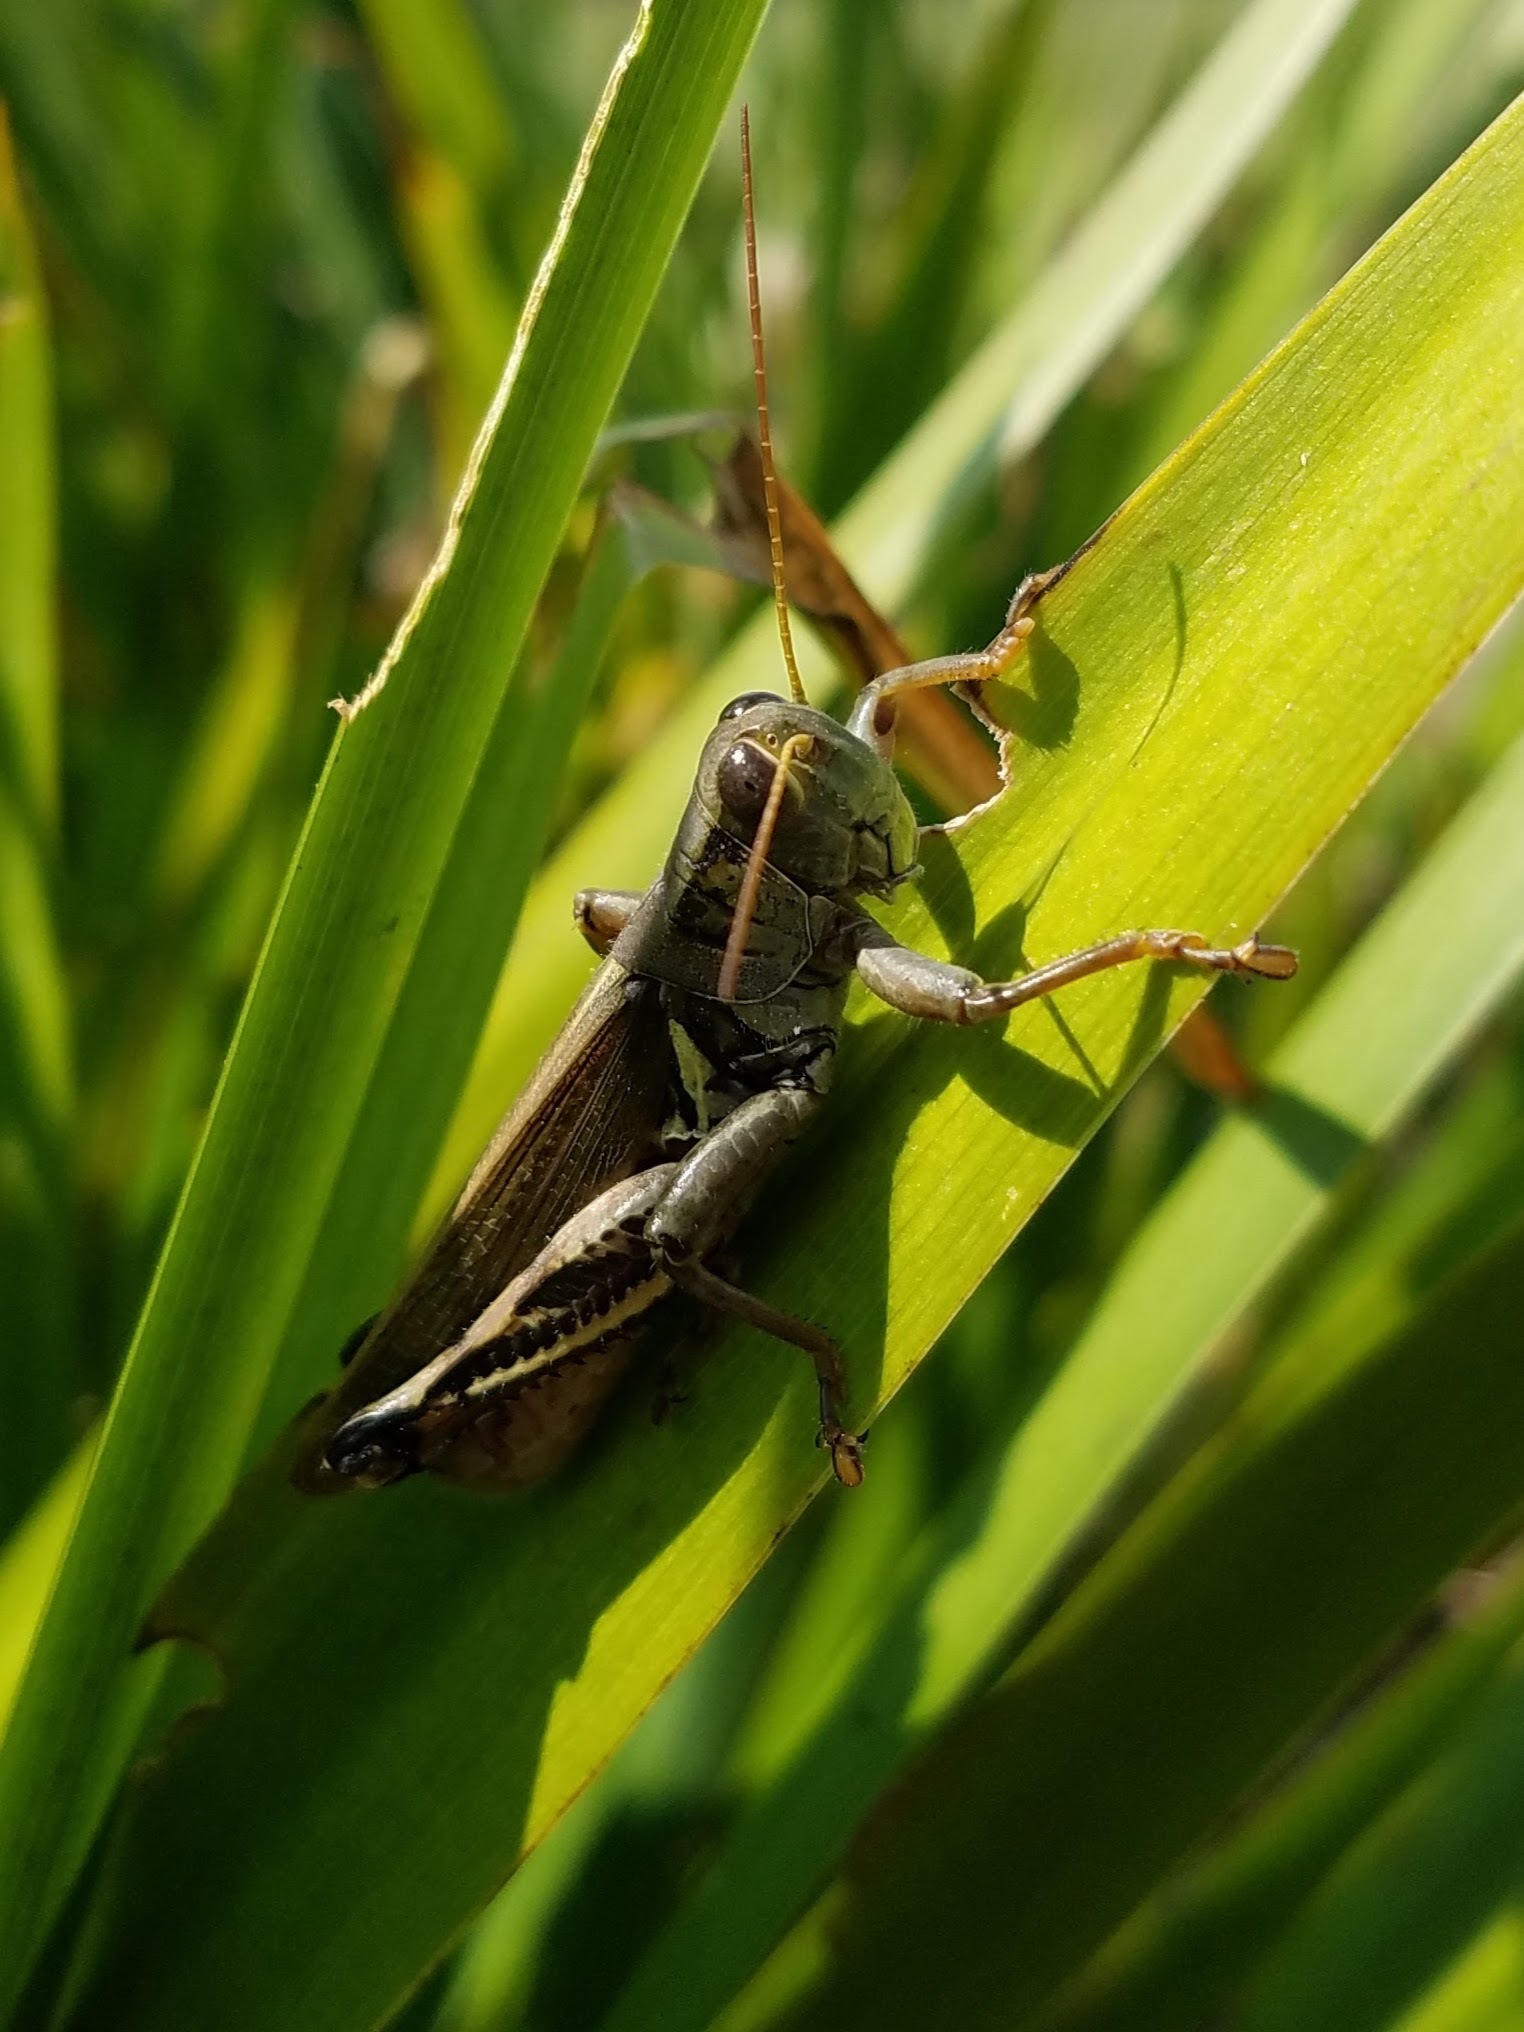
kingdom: Animalia
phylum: Arthropoda
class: Insecta
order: Orthoptera
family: Acrididae
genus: Melanoplus
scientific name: Melanoplus differentialis
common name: Differential grasshopper
